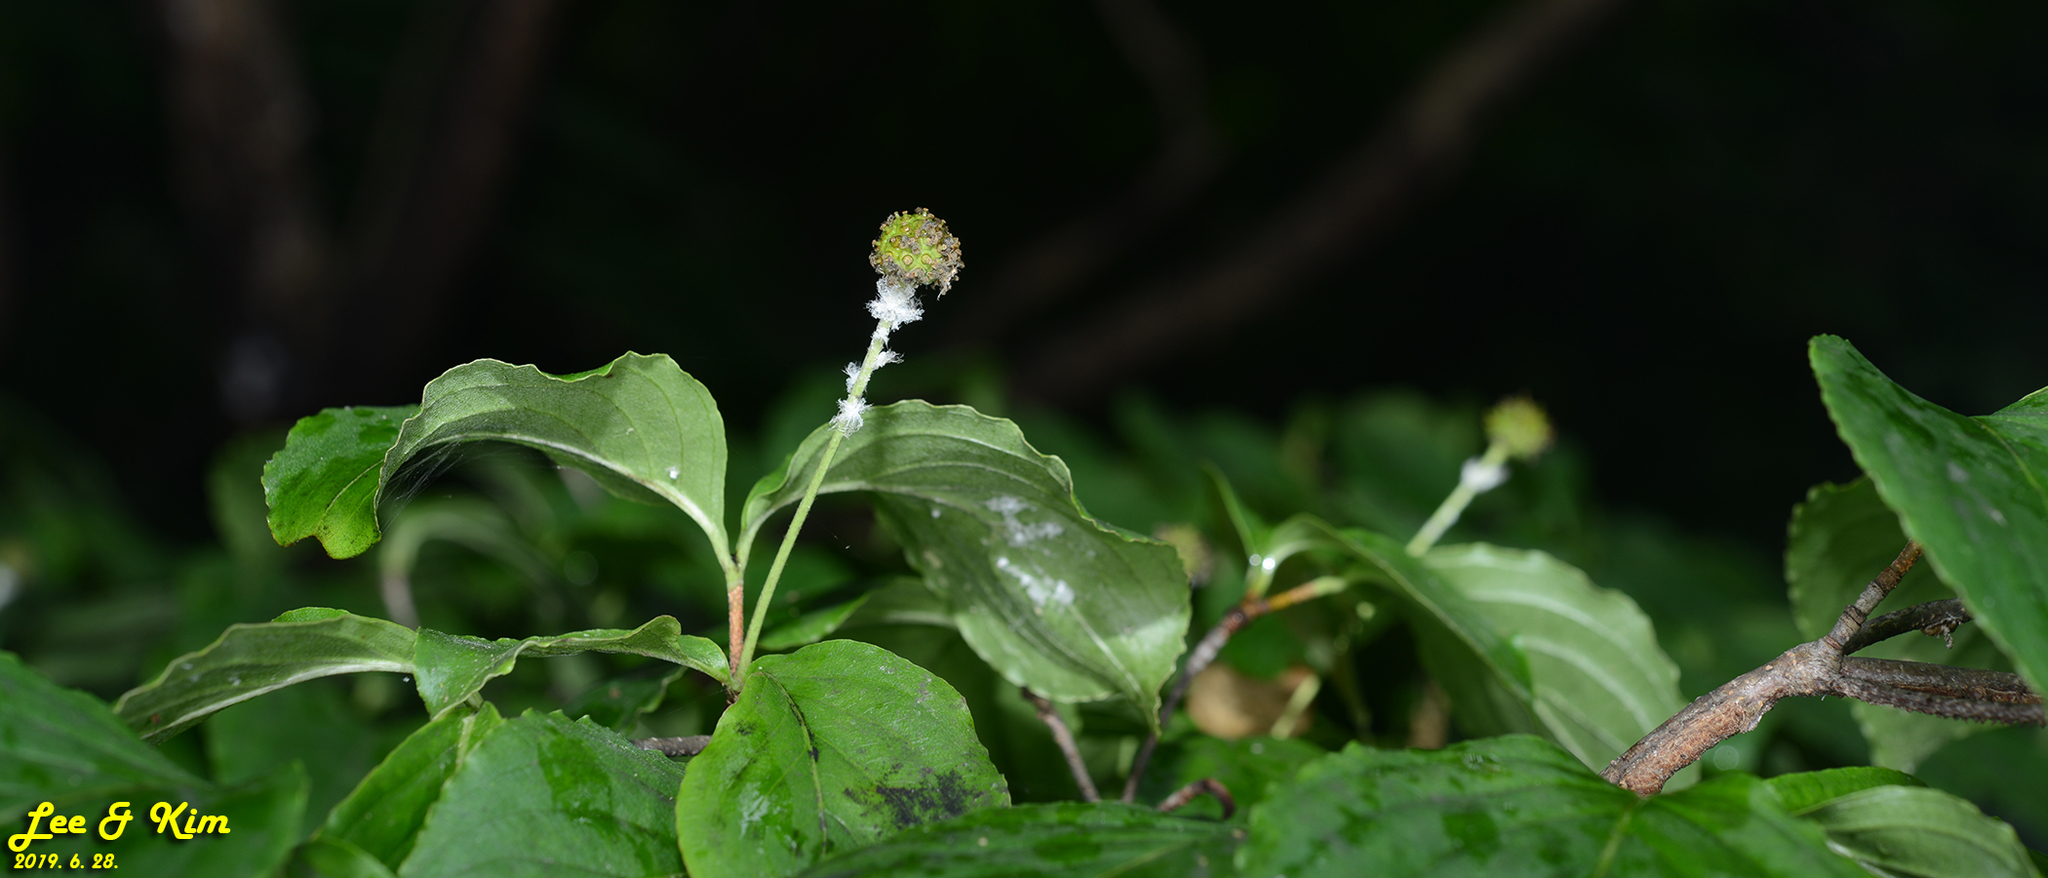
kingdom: Plantae
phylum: Tracheophyta
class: Magnoliopsida
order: Cornales
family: Cornaceae
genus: Cornus
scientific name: Cornus kousa
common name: Japanese dogwood
